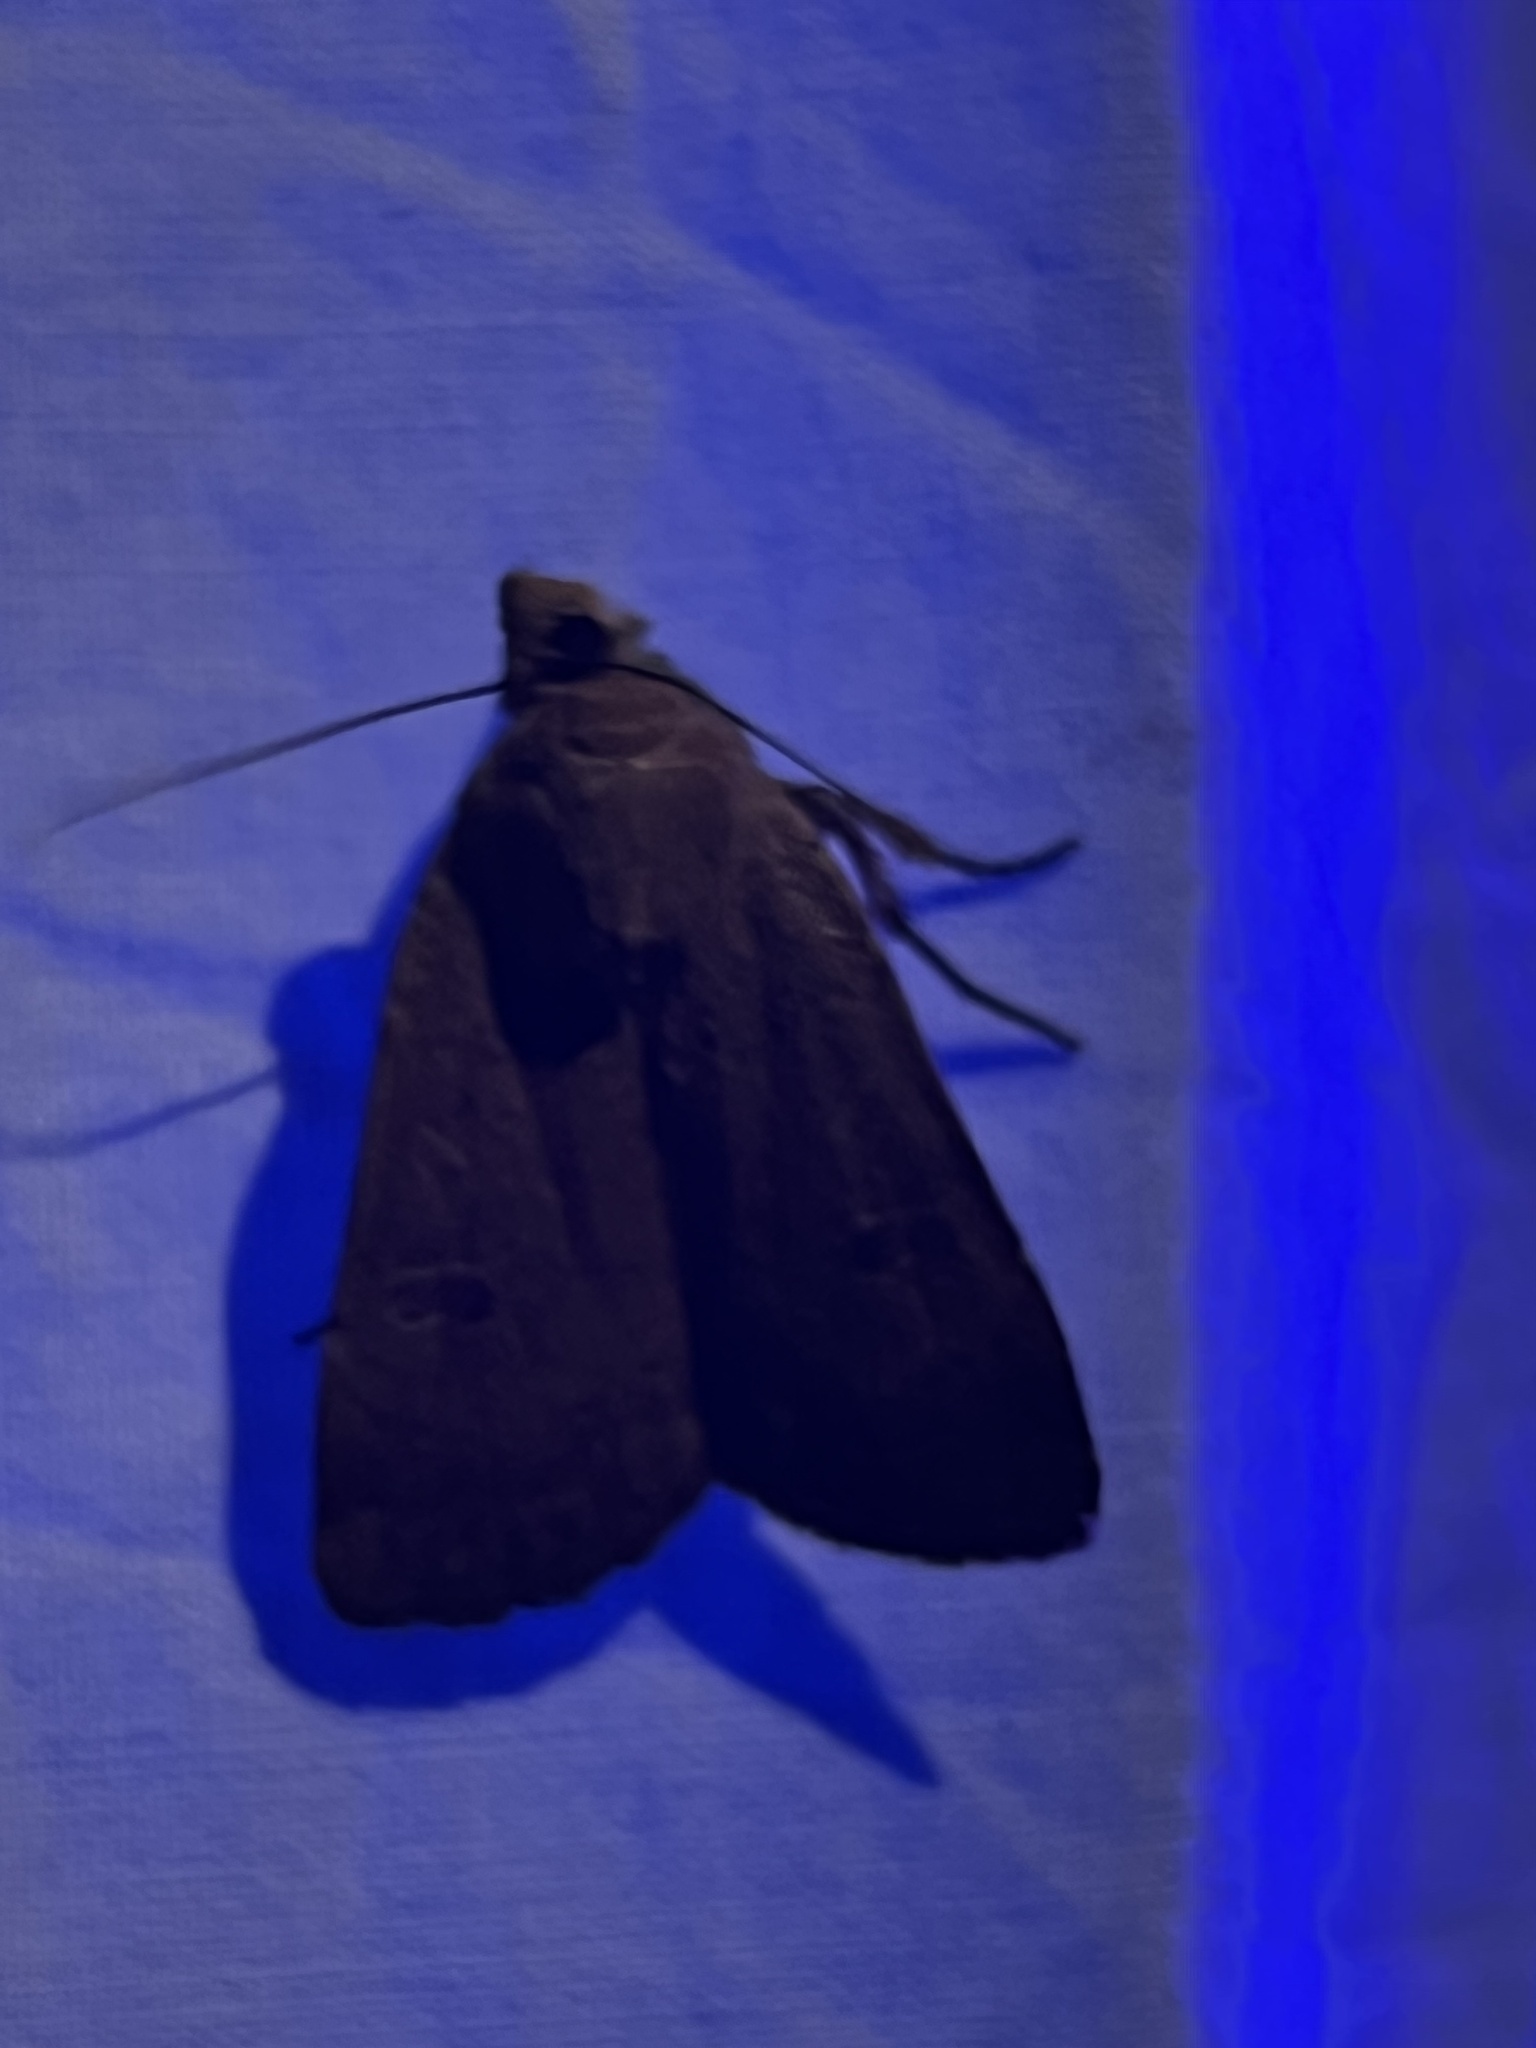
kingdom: Animalia
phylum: Arthropoda
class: Insecta
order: Lepidoptera
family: Noctuidae
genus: Noctua
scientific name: Noctua comes
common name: Lesser yellow underwing
